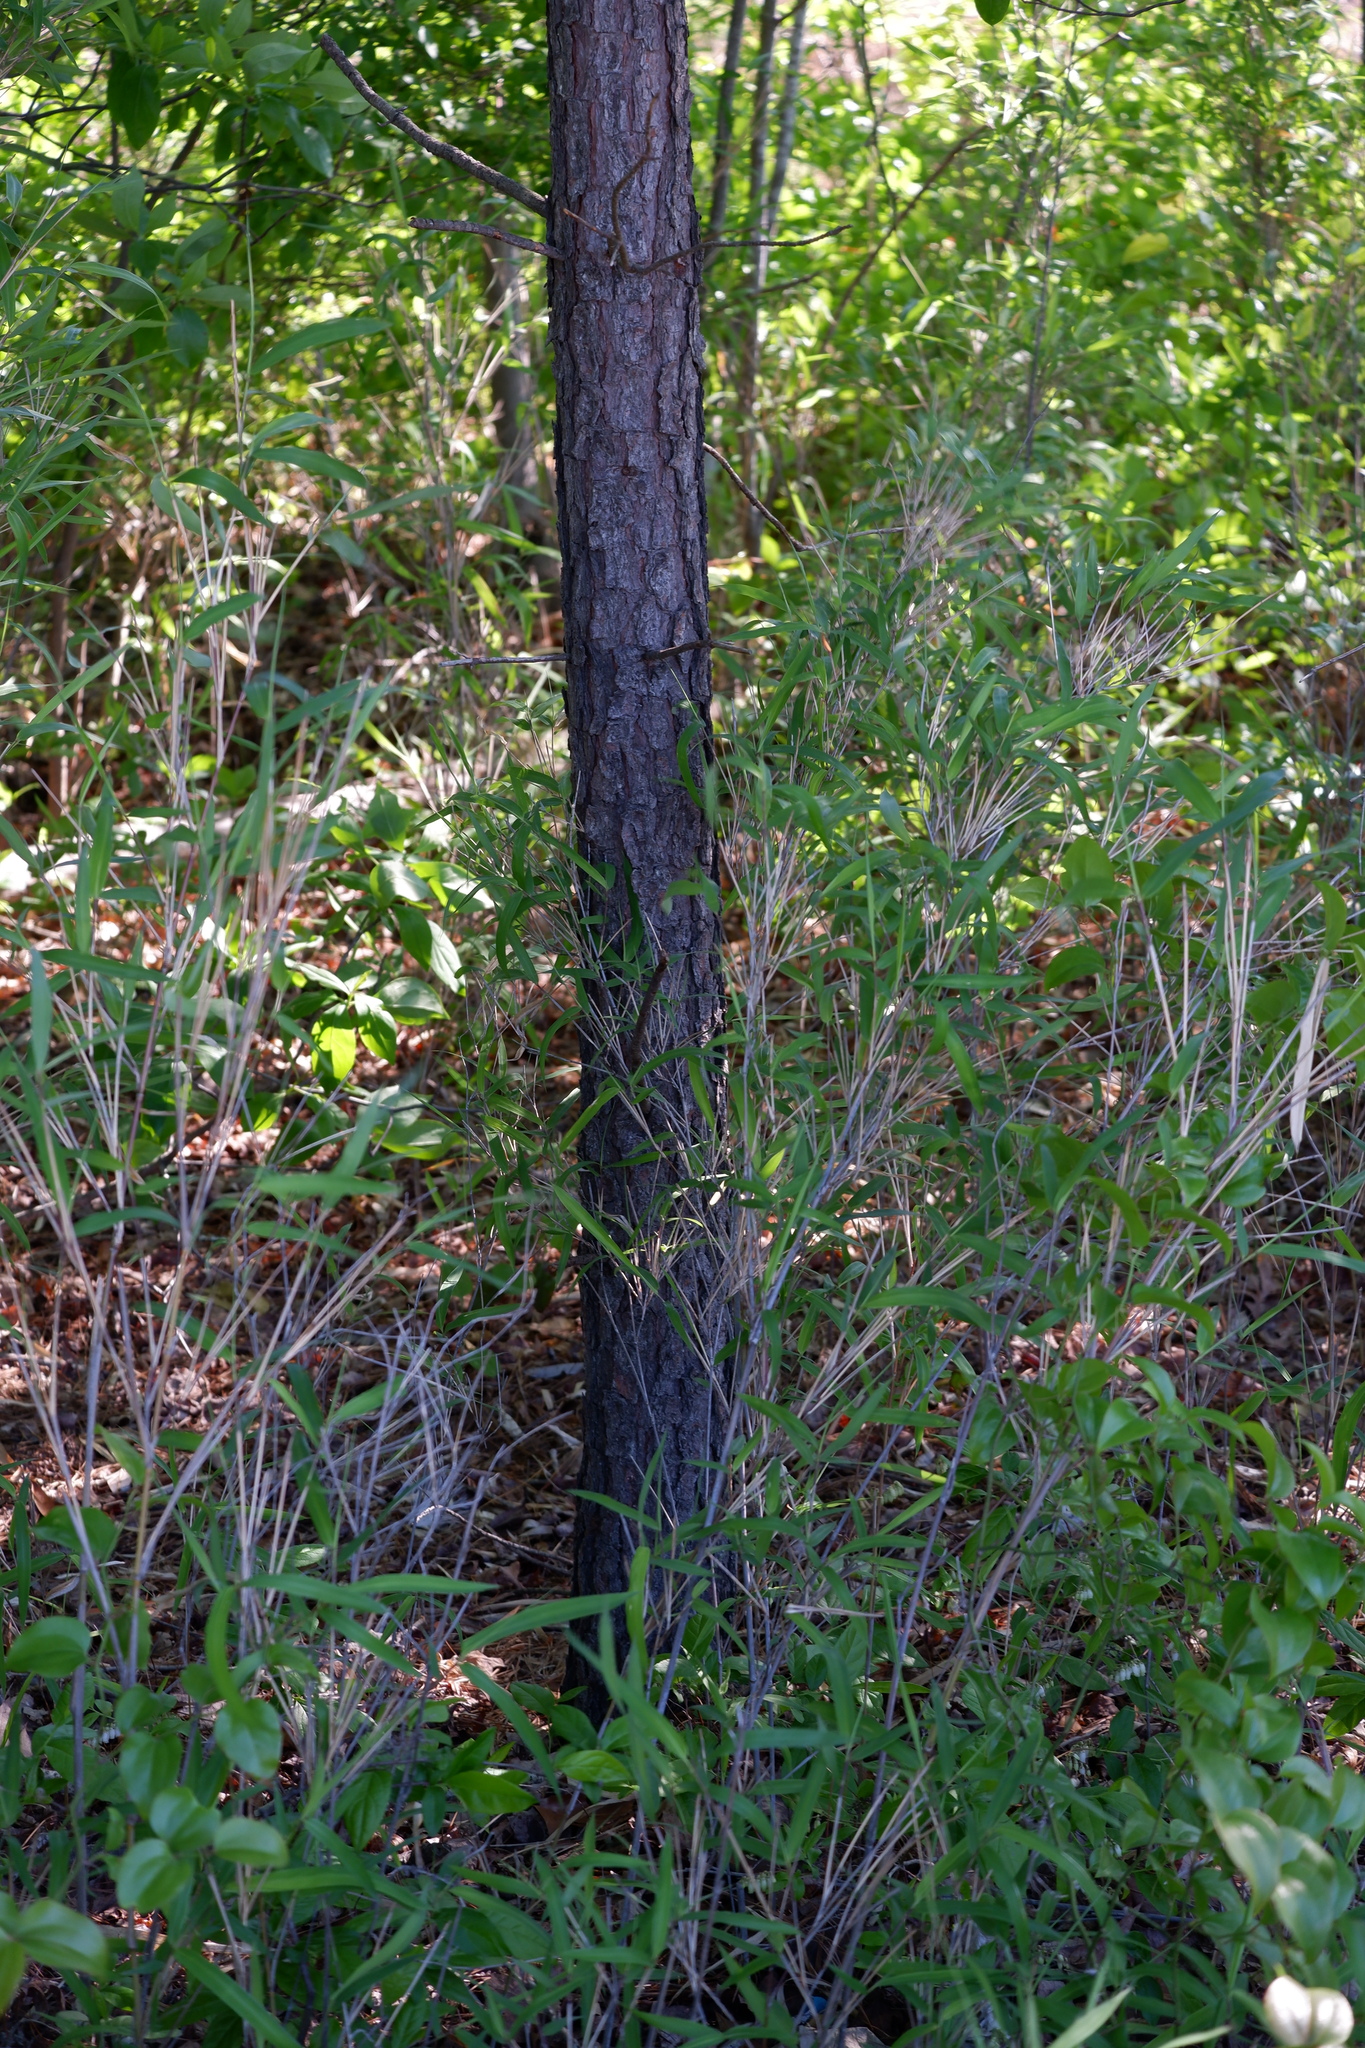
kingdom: Plantae
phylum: Tracheophyta
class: Liliopsida
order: Poales
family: Poaceae
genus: Arundinaria
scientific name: Arundinaria tecta
